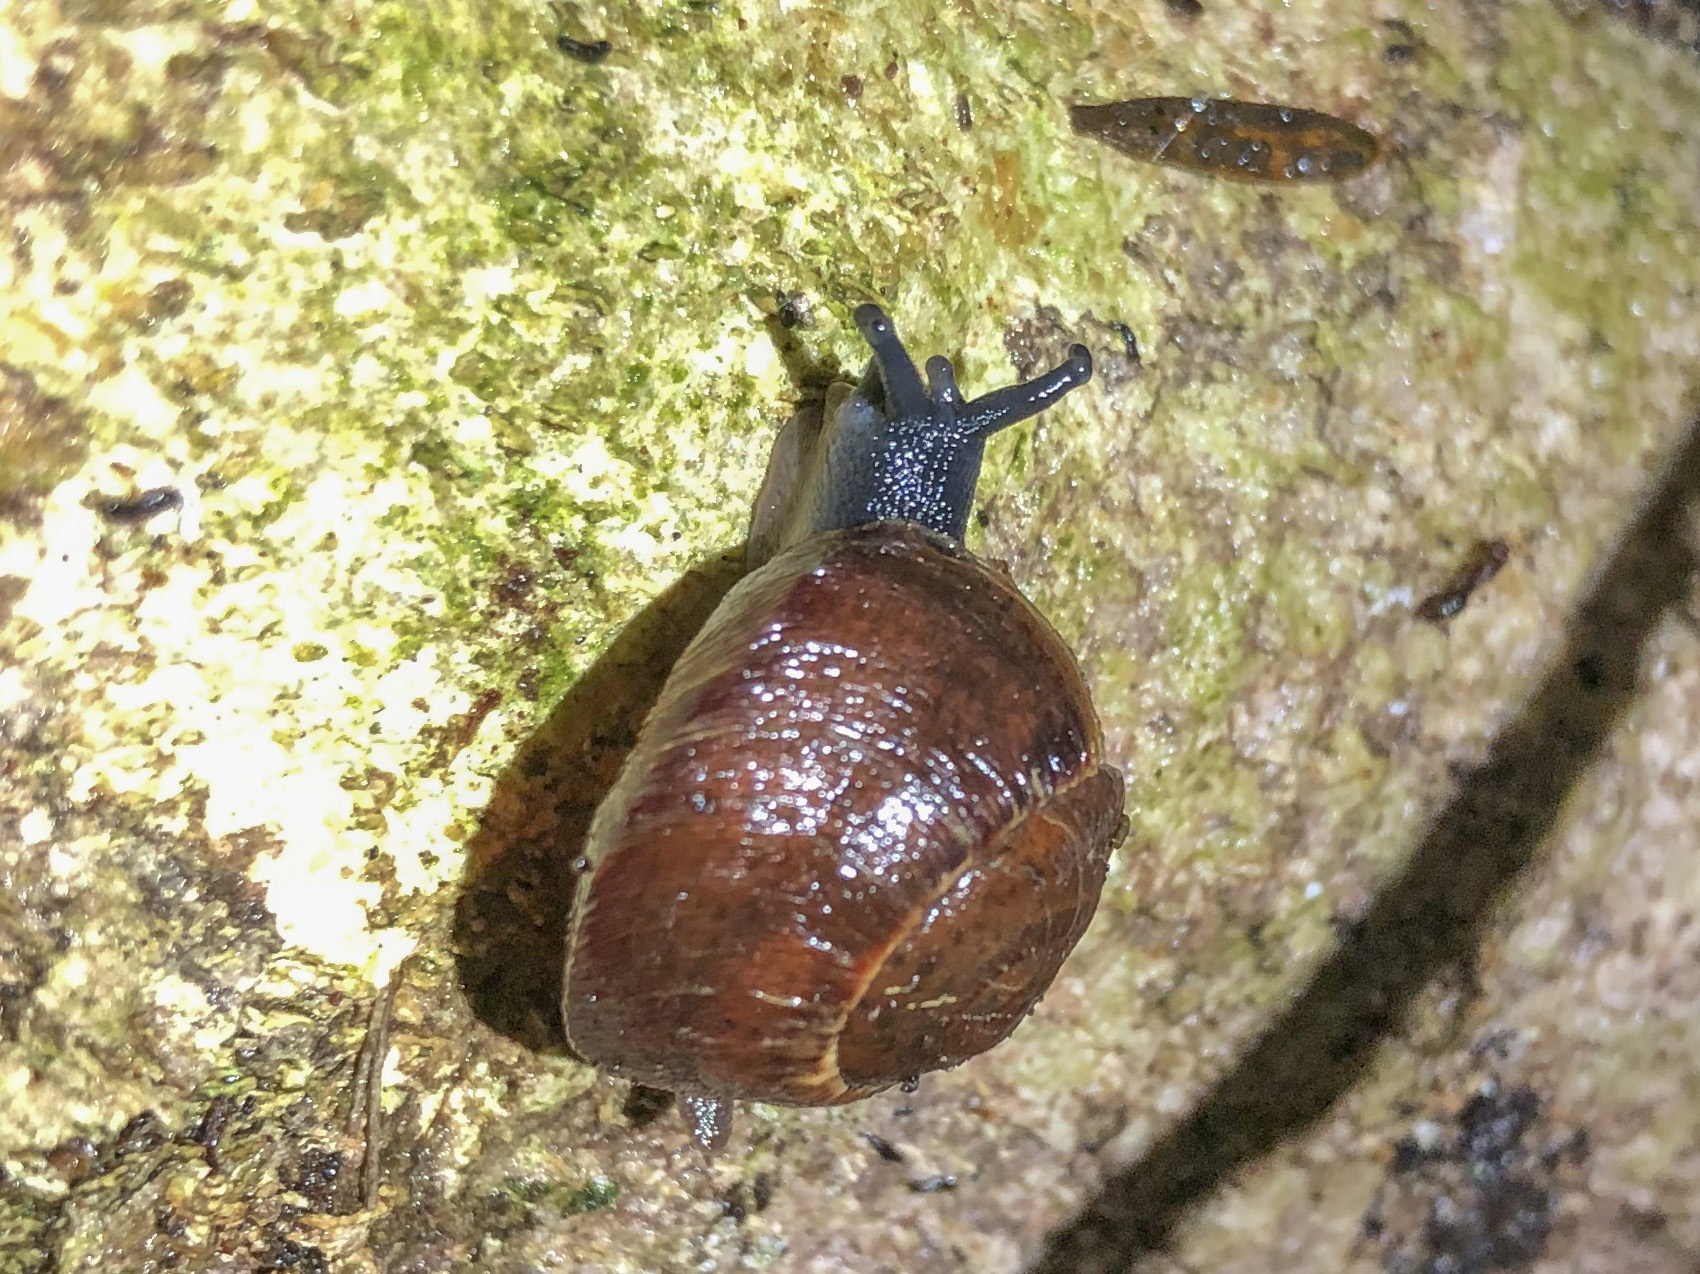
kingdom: Animalia
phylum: Mollusca
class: Gastropoda
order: Stylommatophora
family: Rhytididae
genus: Amborhytida
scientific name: Amborhytida dunniae
